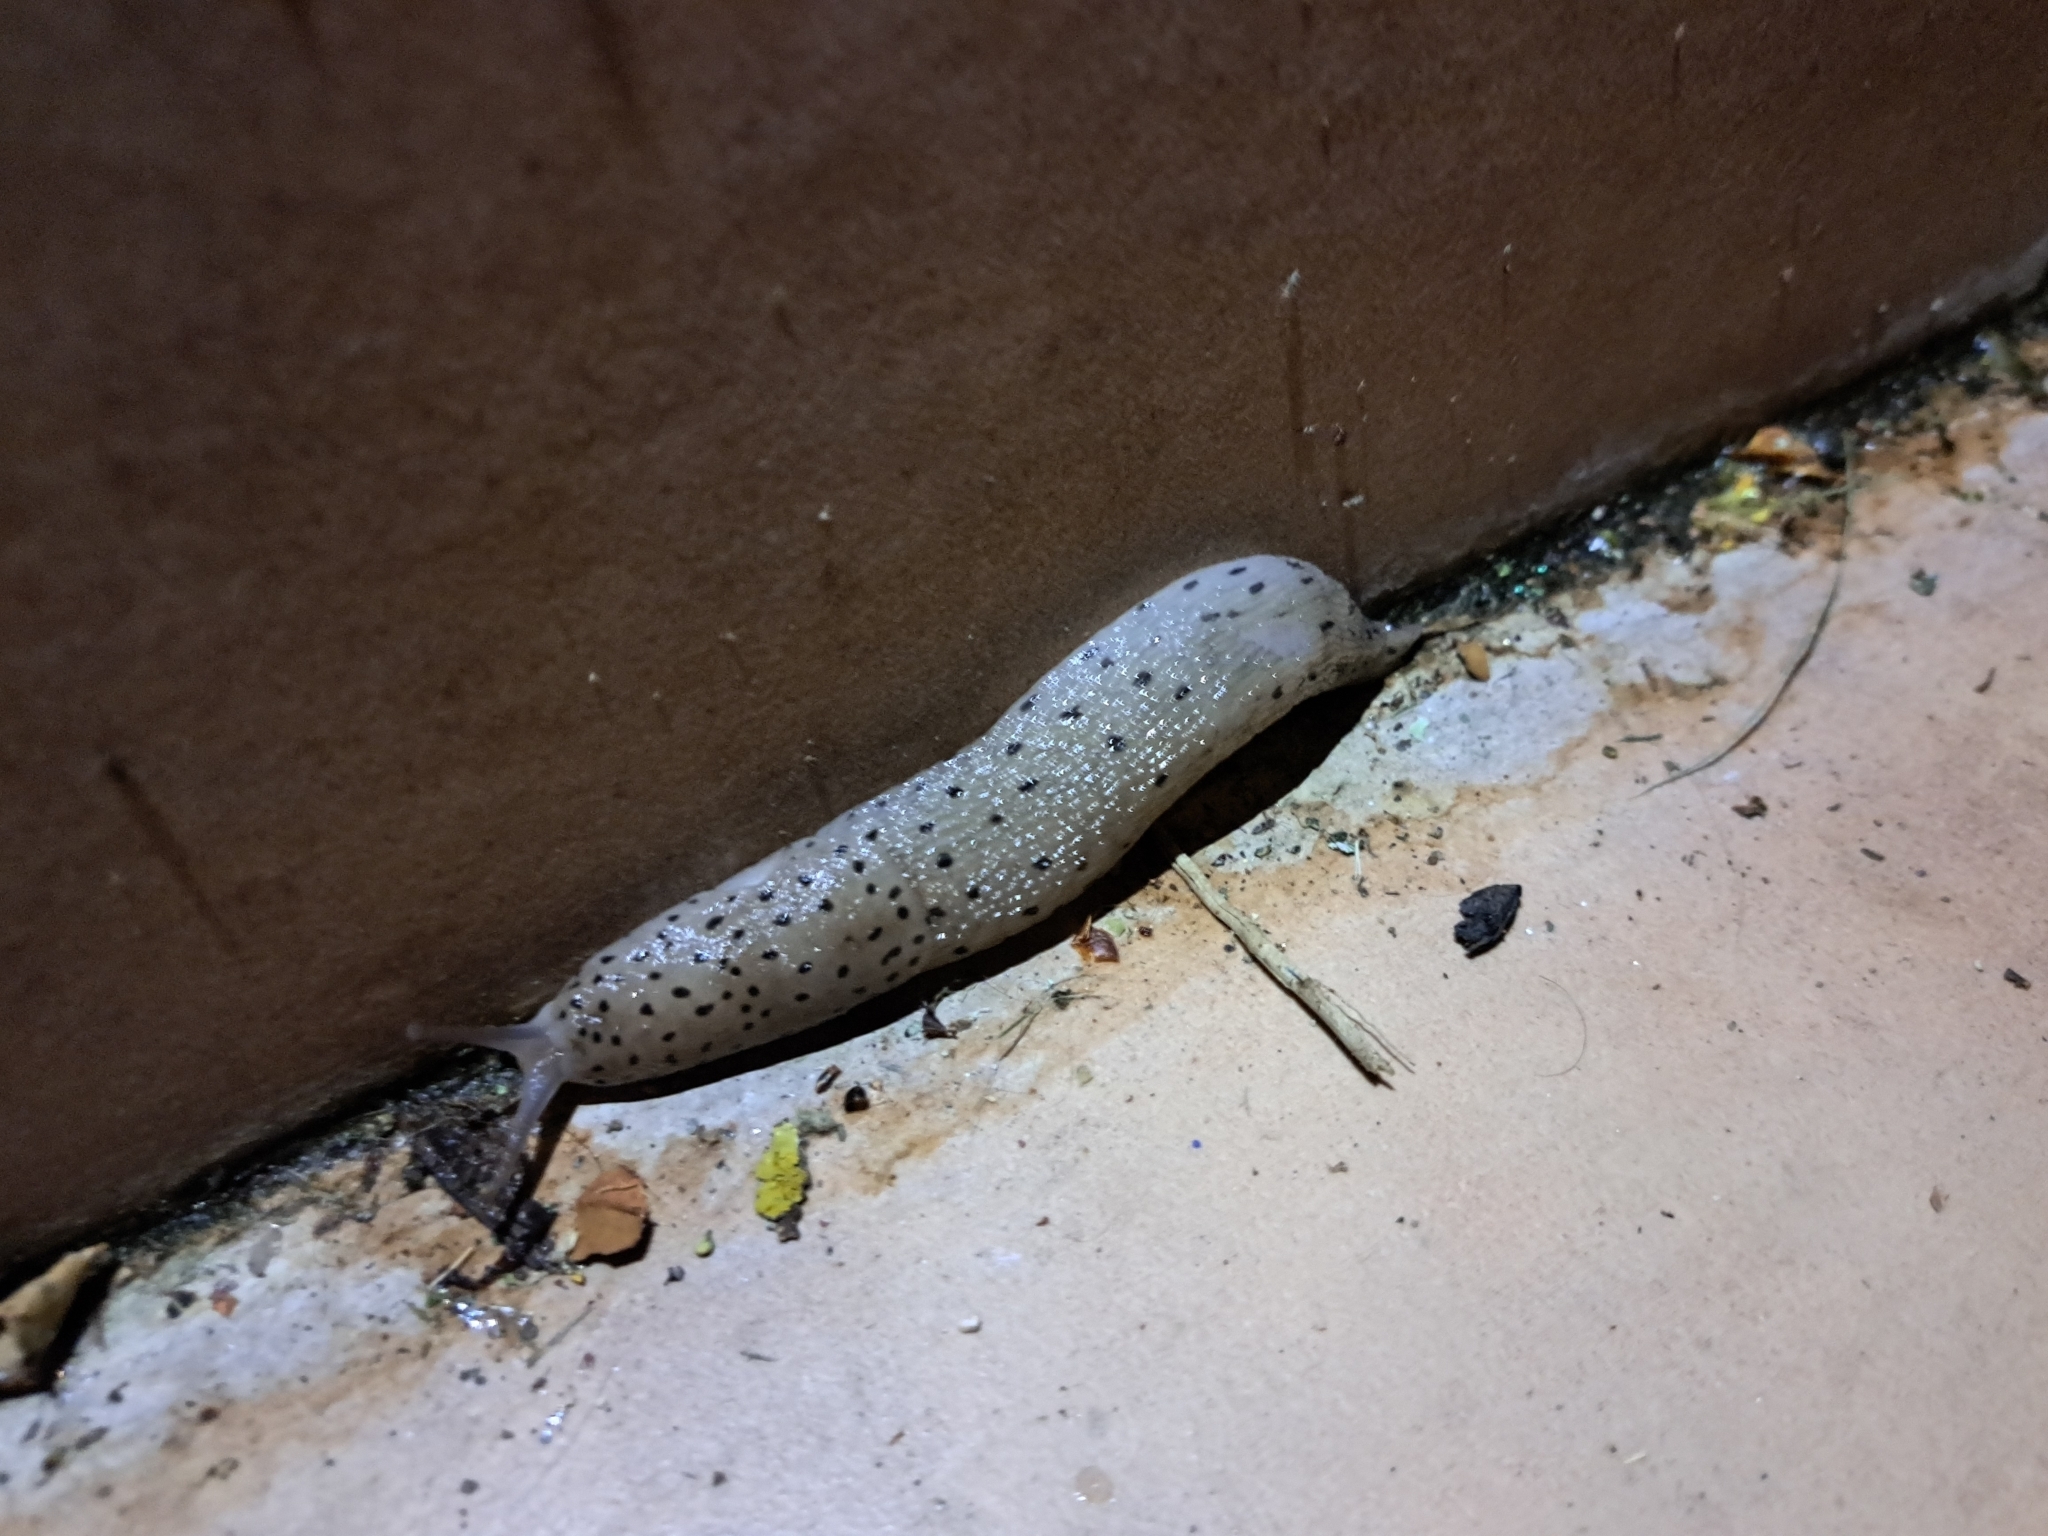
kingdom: Animalia
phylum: Mollusca
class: Gastropoda
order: Stylommatophora
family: Limacidae
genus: Limax
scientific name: Limax conemenosi
